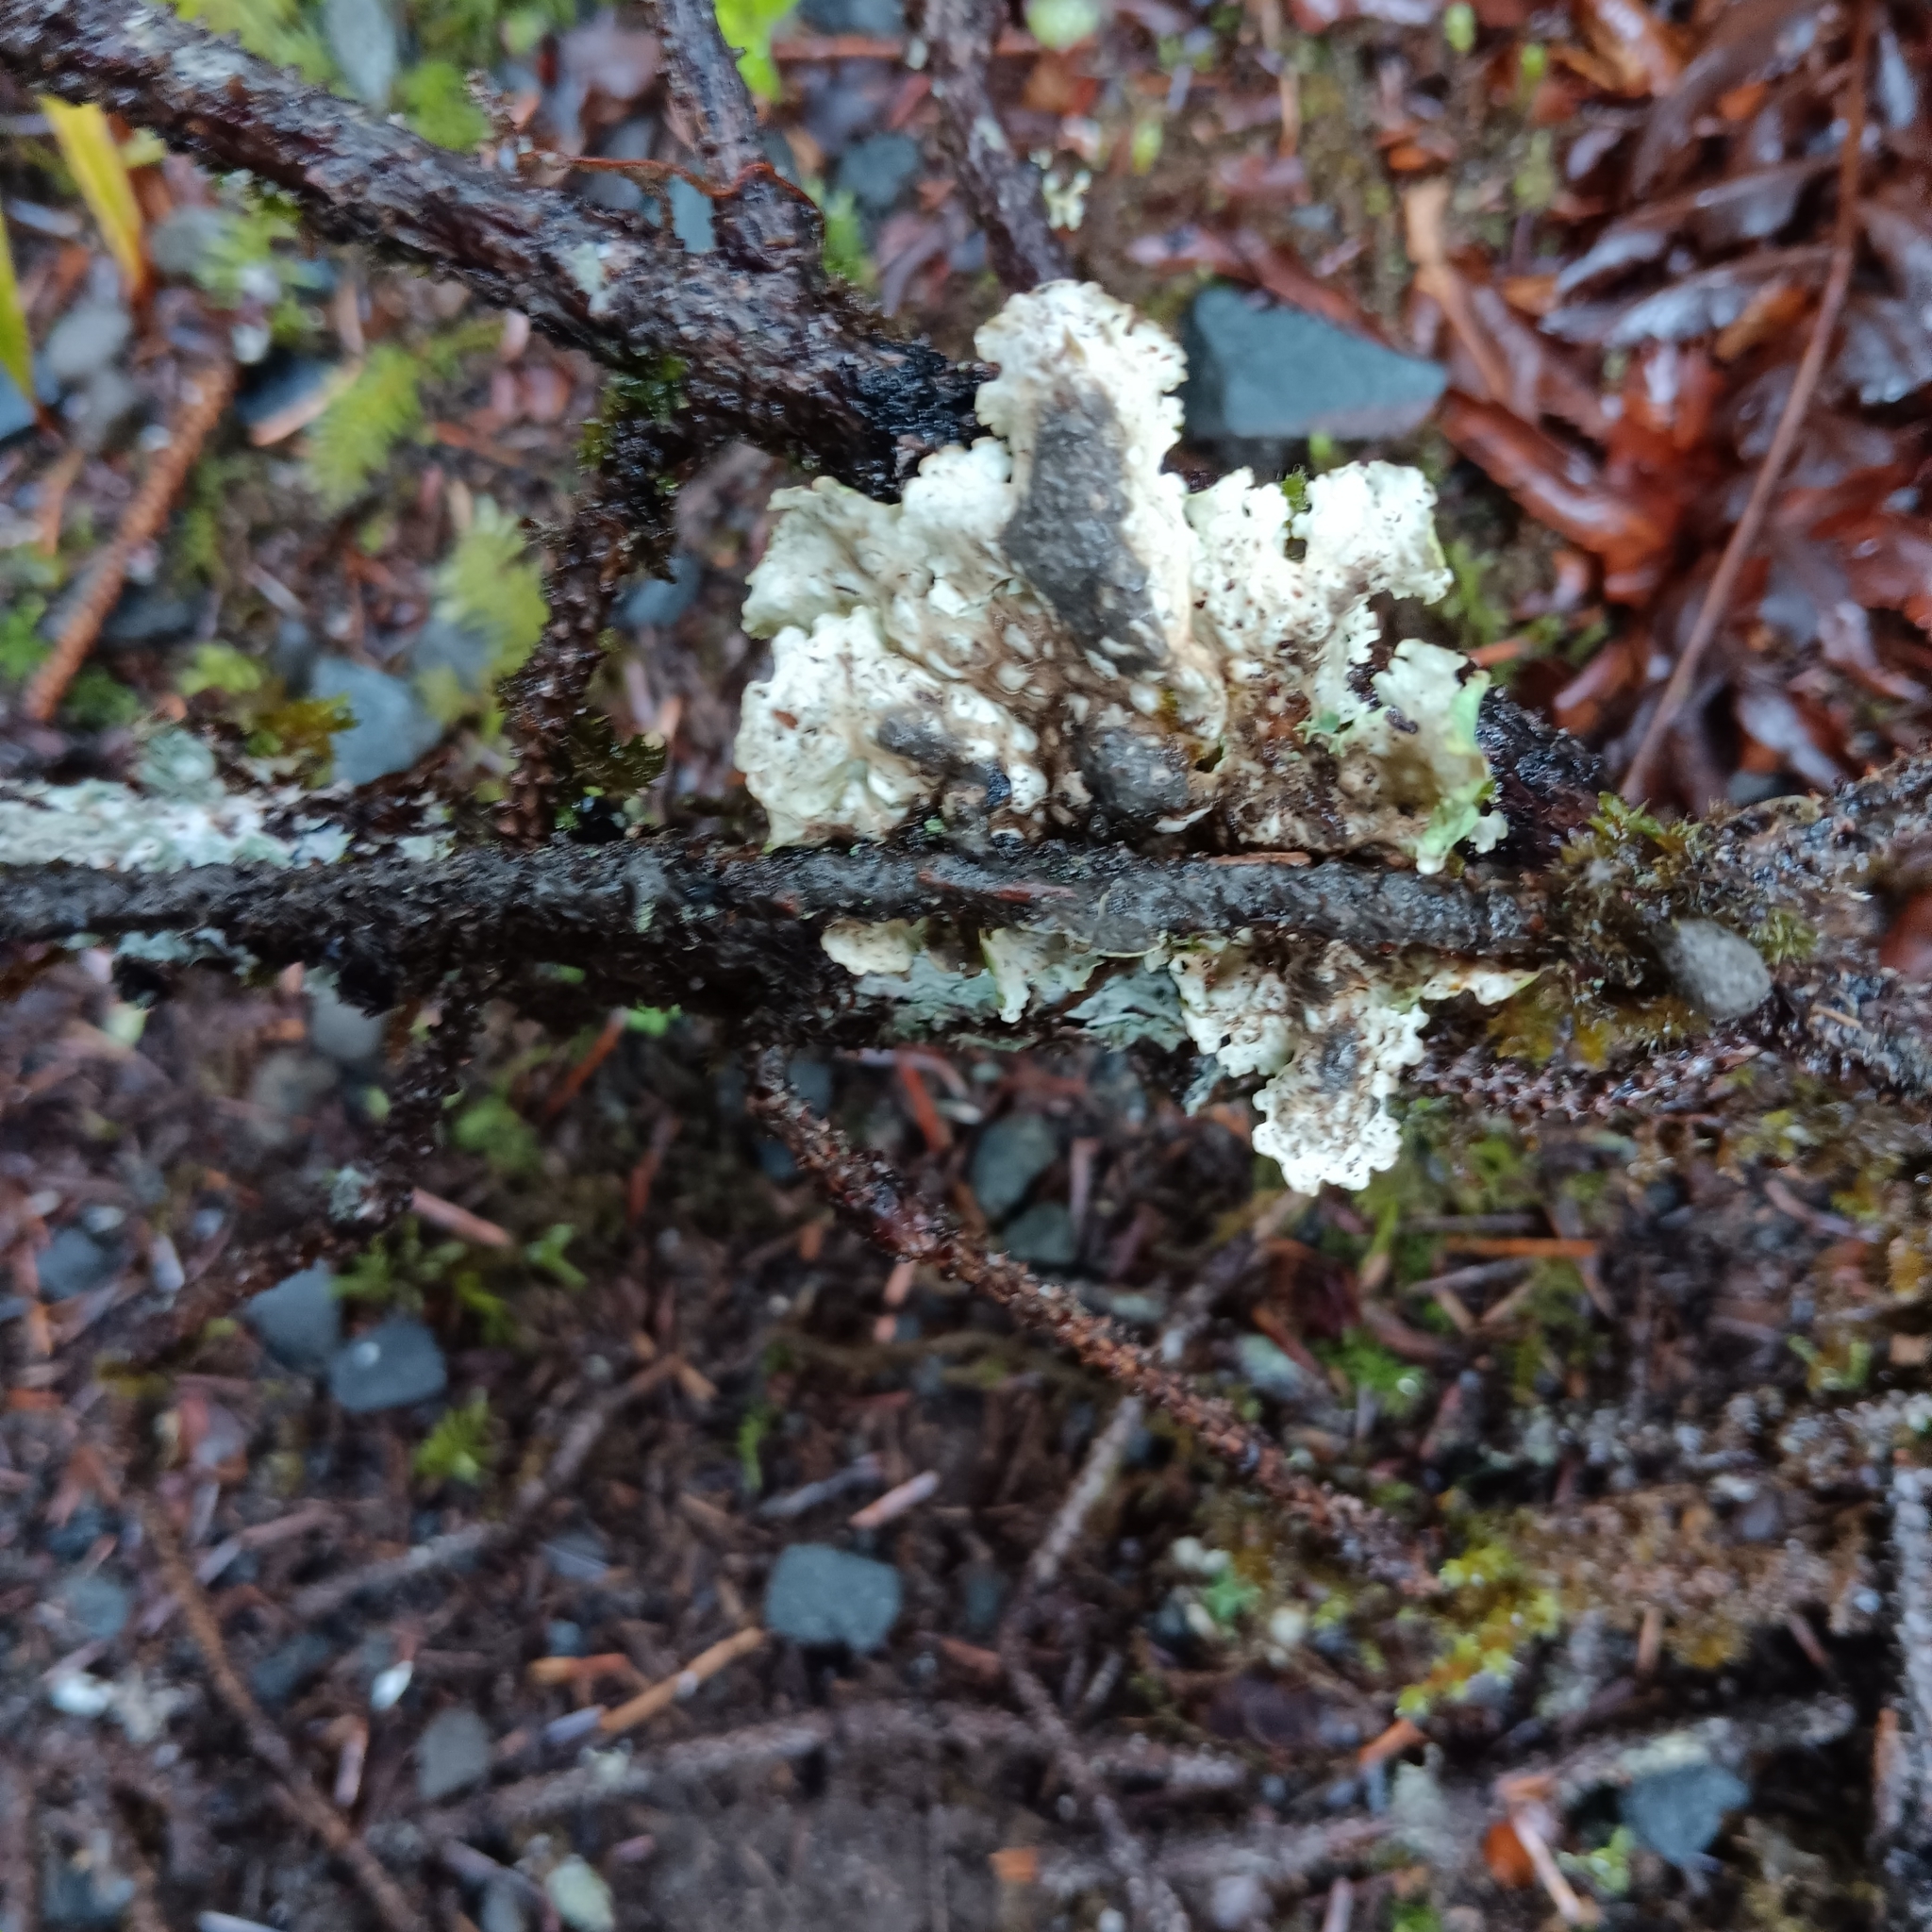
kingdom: Fungi
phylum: Ascomycota
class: Lecanoromycetes
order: Peltigerales
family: Lobariaceae
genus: Lobaria
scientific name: Lobaria oregana
